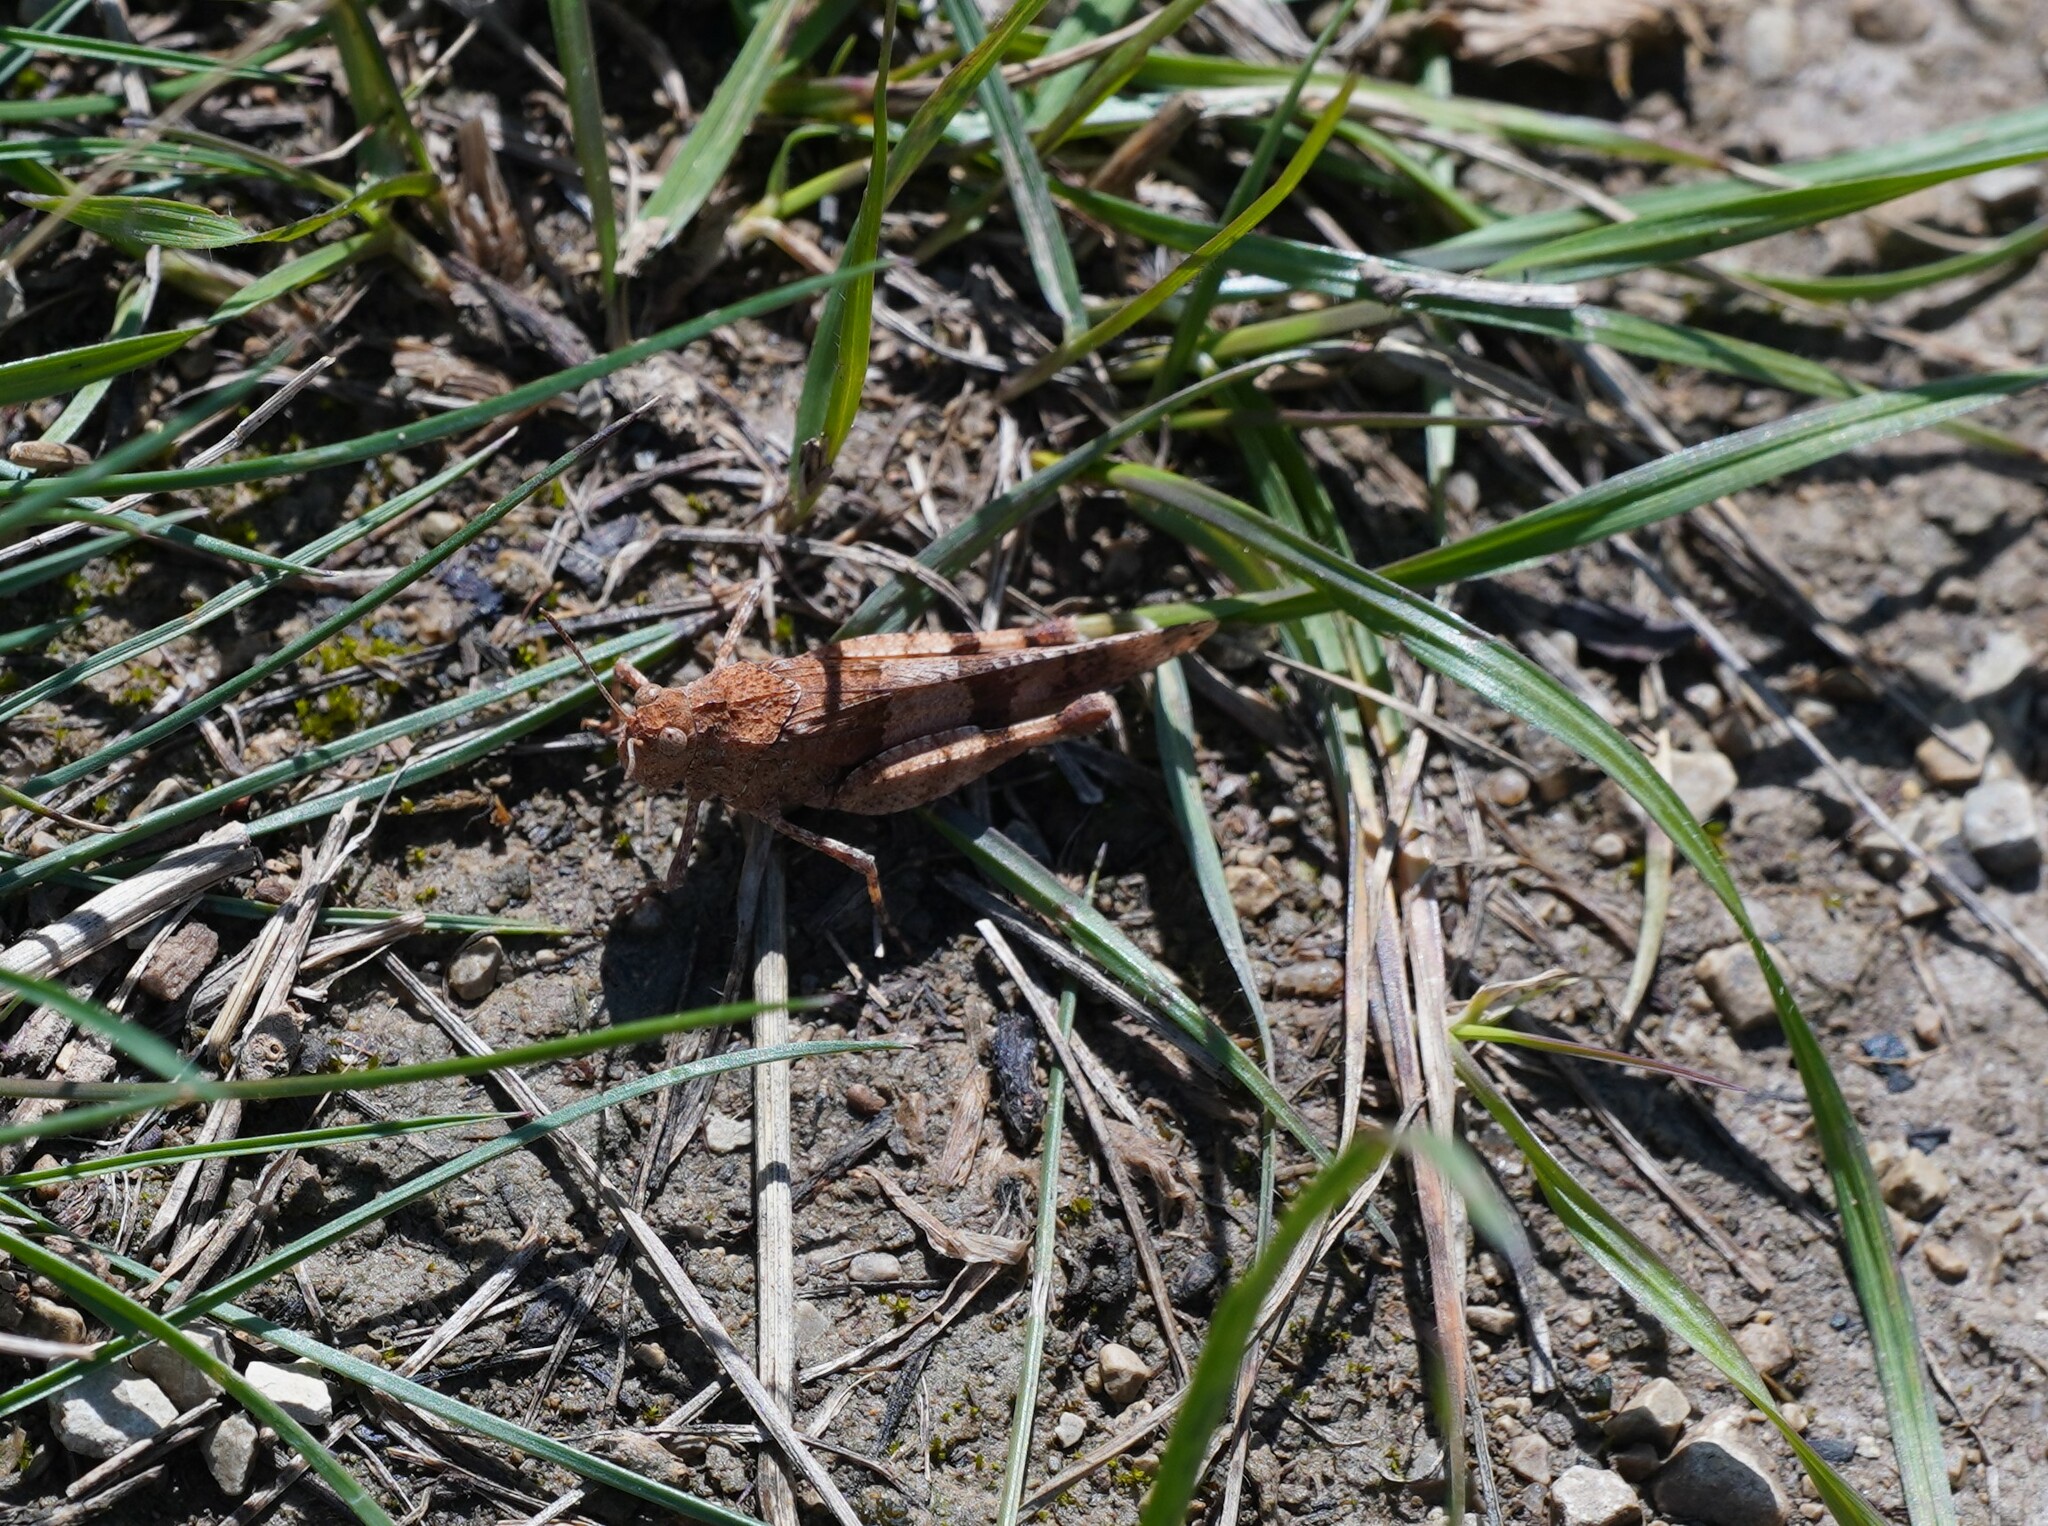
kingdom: Animalia
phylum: Arthropoda
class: Insecta
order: Orthoptera
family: Acrididae
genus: Oedipoda
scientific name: Oedipoda caerulescens
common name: Blue-winged grasshopper
